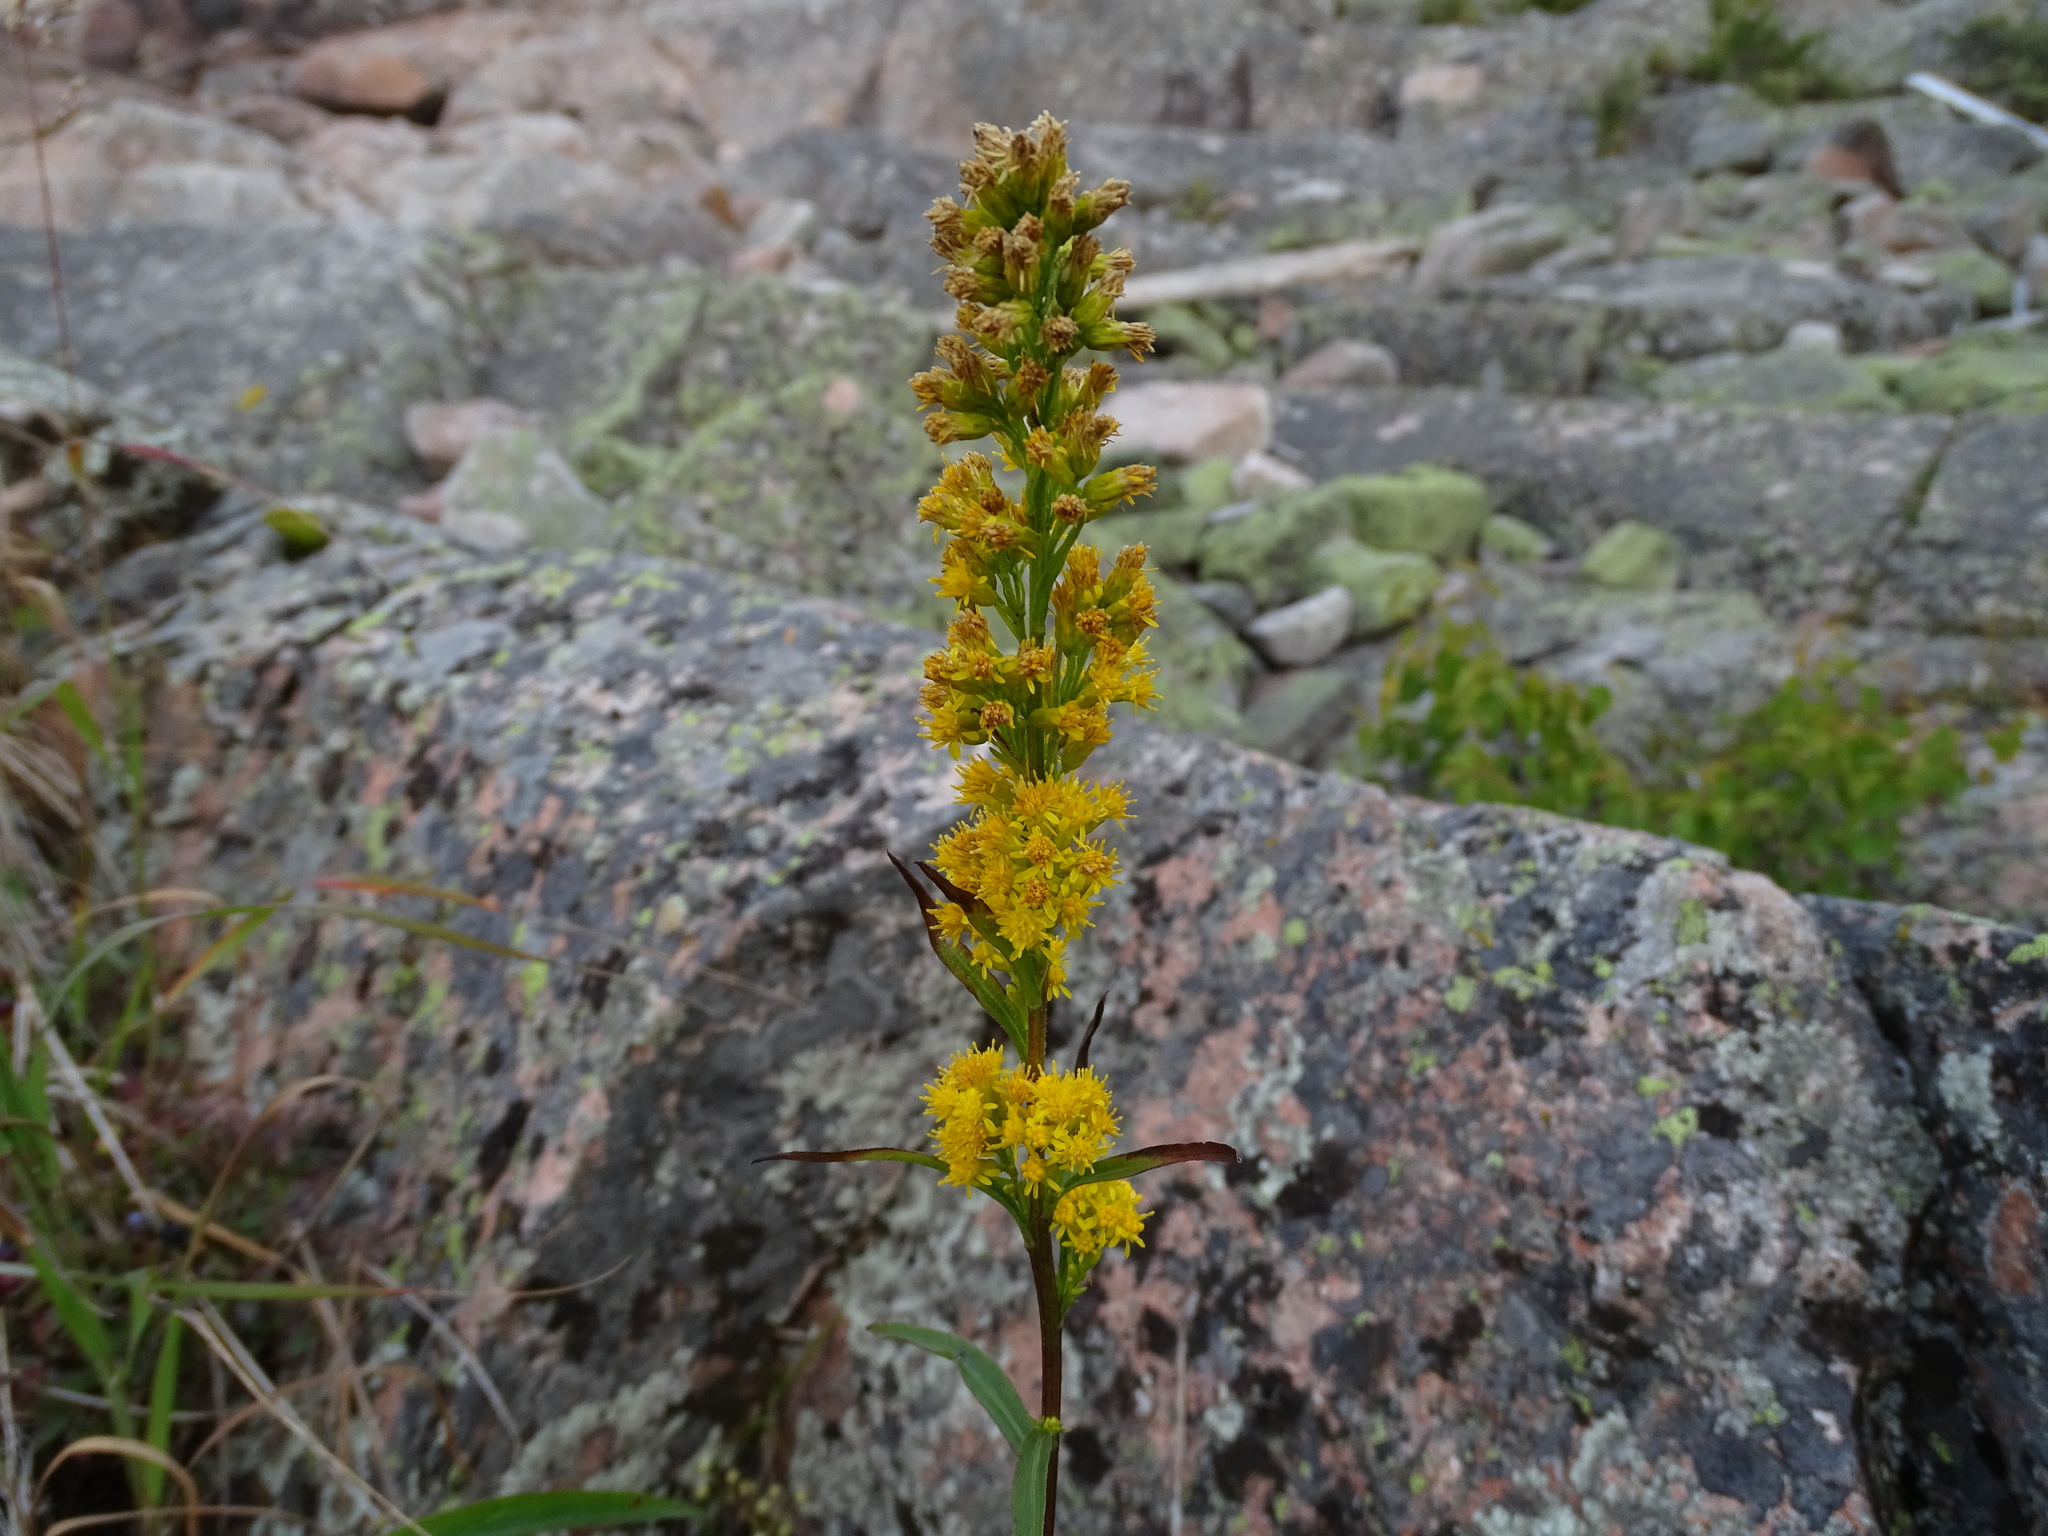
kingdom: Plantae
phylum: Tracheophyta
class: Magnoliopsida
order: Asterales
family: Asteraceae
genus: Solidago
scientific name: Solidago uliginosa
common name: Bog goldenrod
